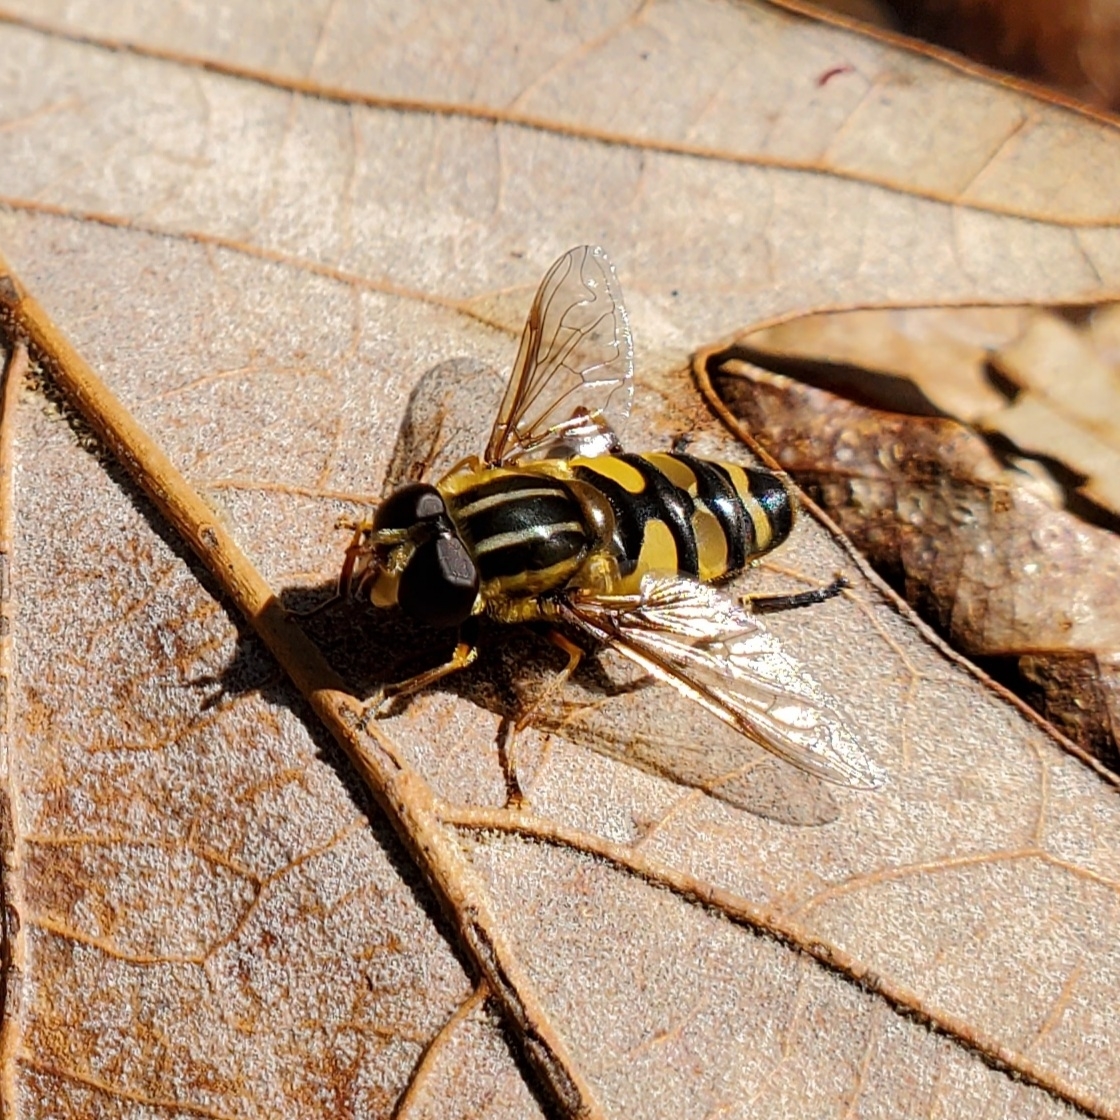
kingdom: Animalia
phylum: Arthropoda
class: Insecta
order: Diptera
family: Syrphidae
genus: Helophilus
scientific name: Helophilus fasciatus
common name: Narrow-headed marsh fly
